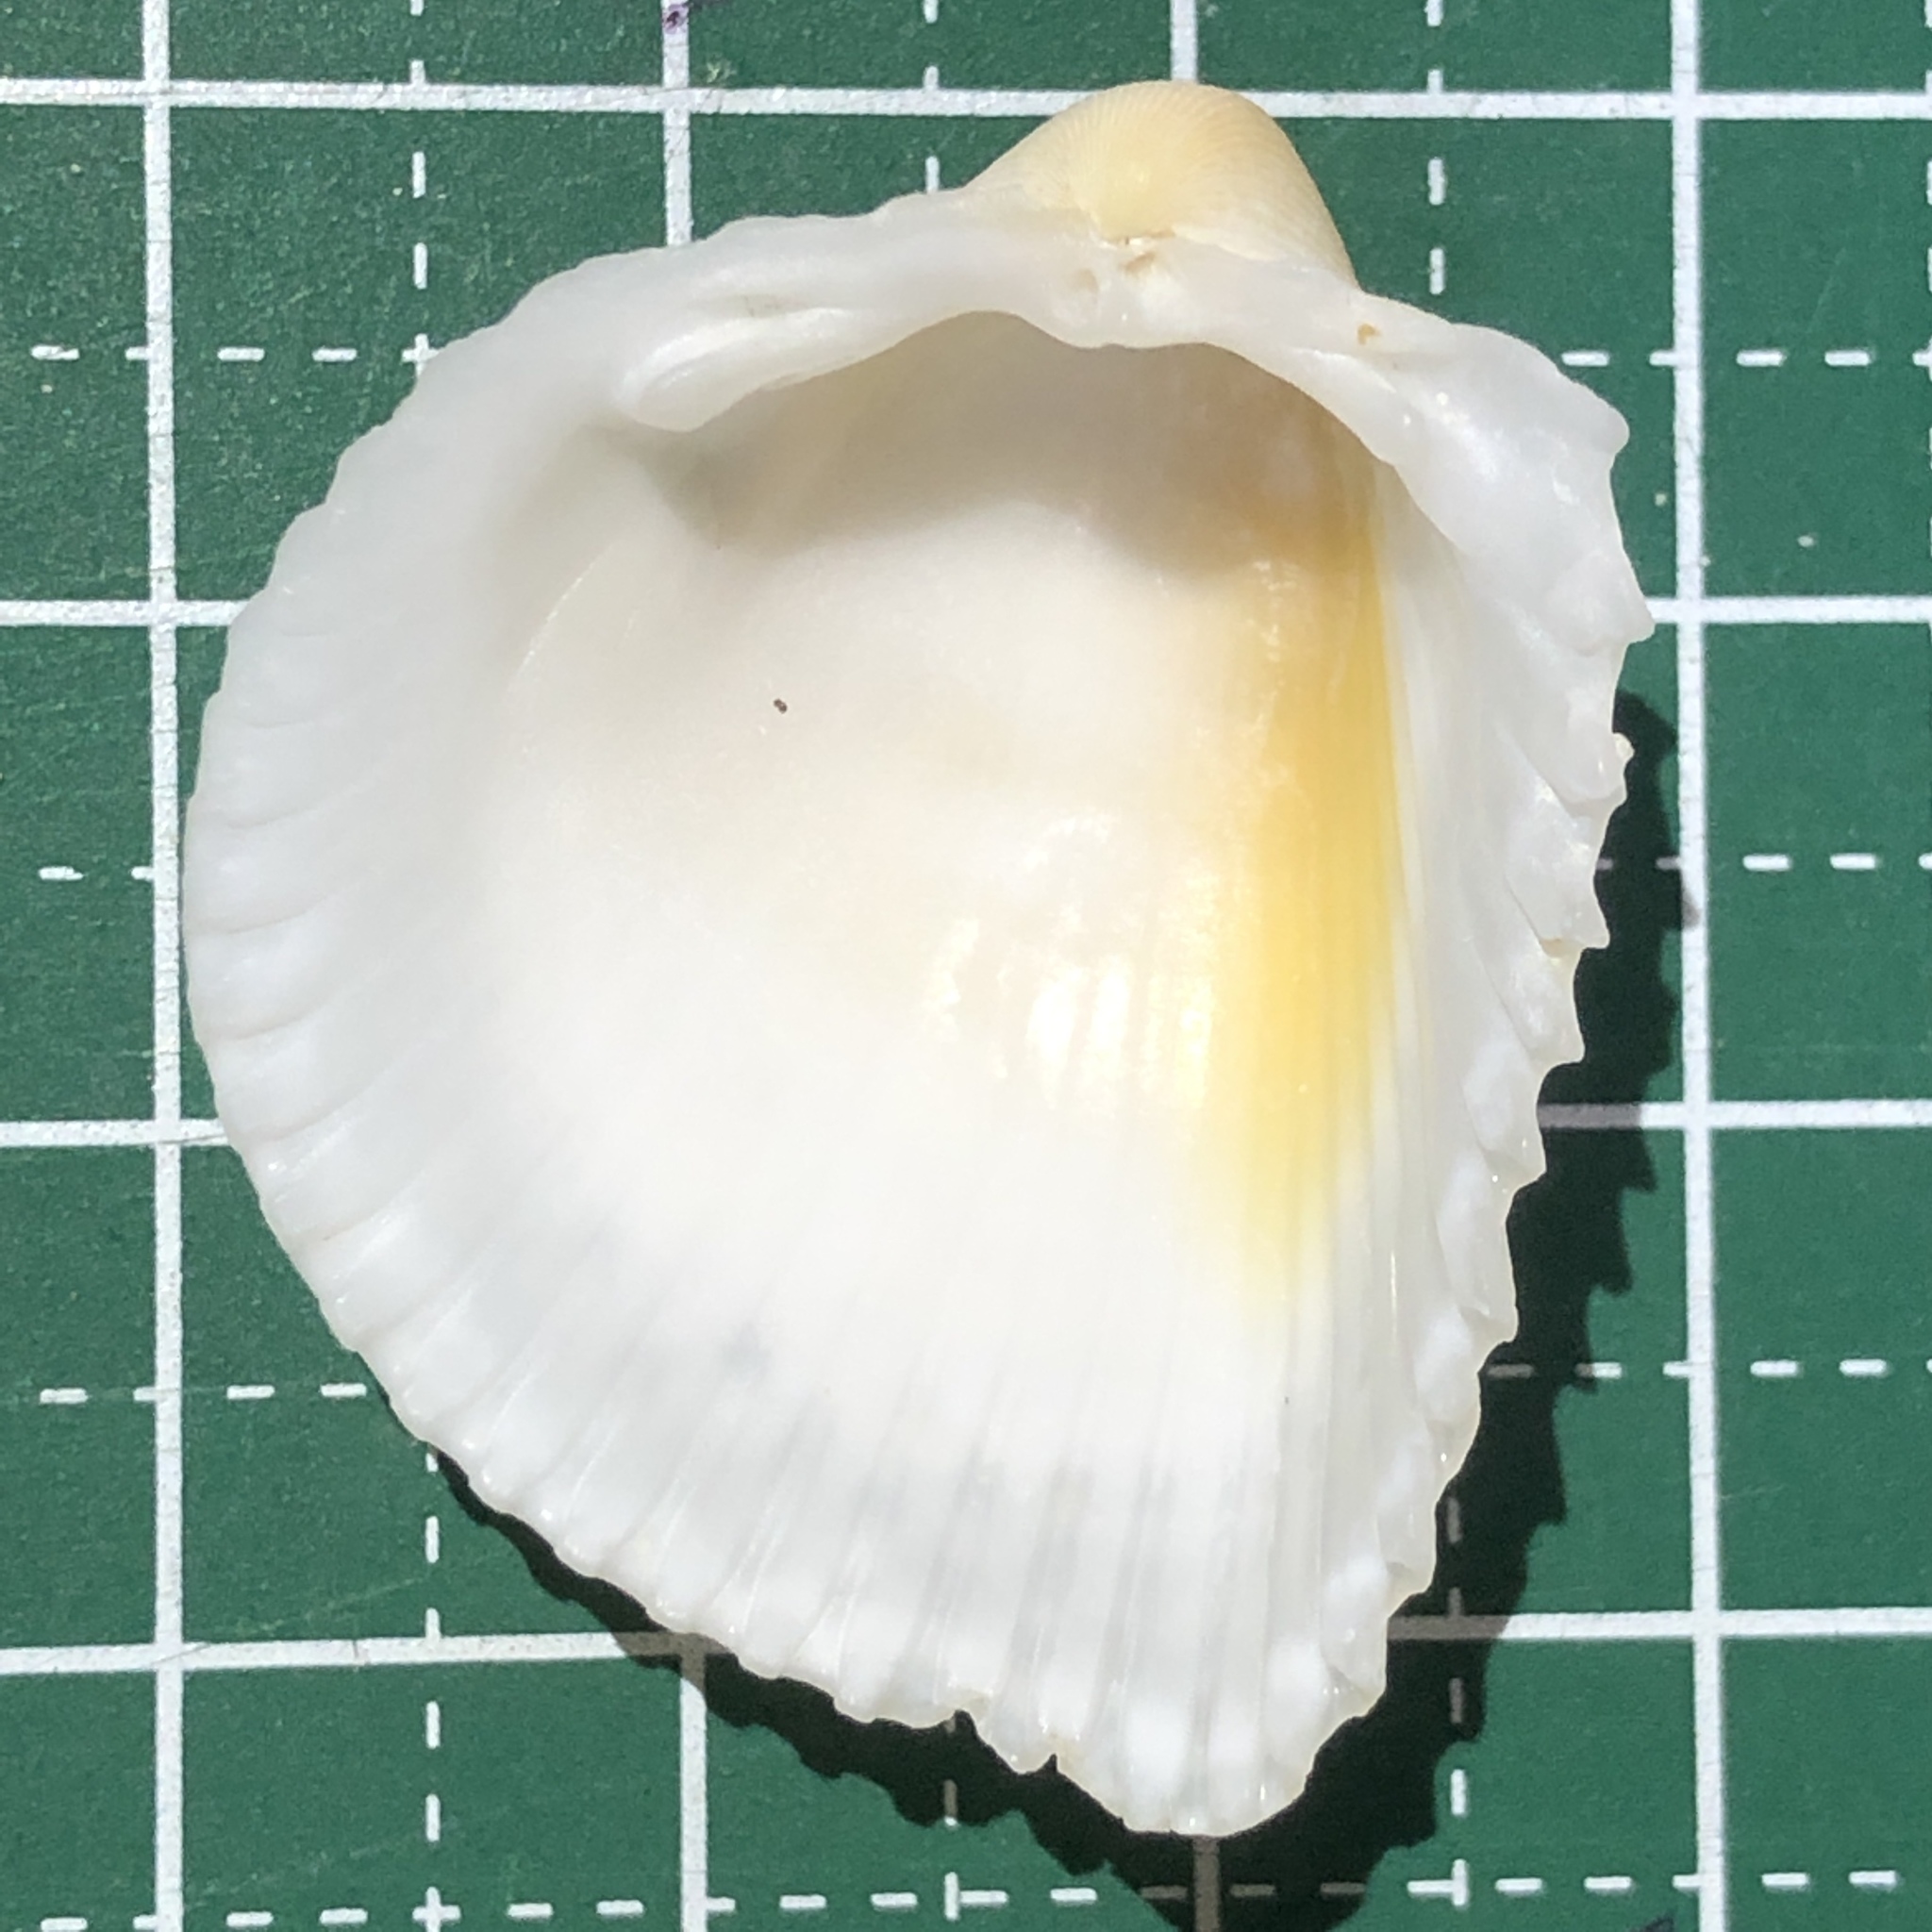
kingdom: Animalia
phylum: Mollusca
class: Bivalvia
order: Cardiida
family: Cardiidae
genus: Fragum
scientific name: Fragum fragum
